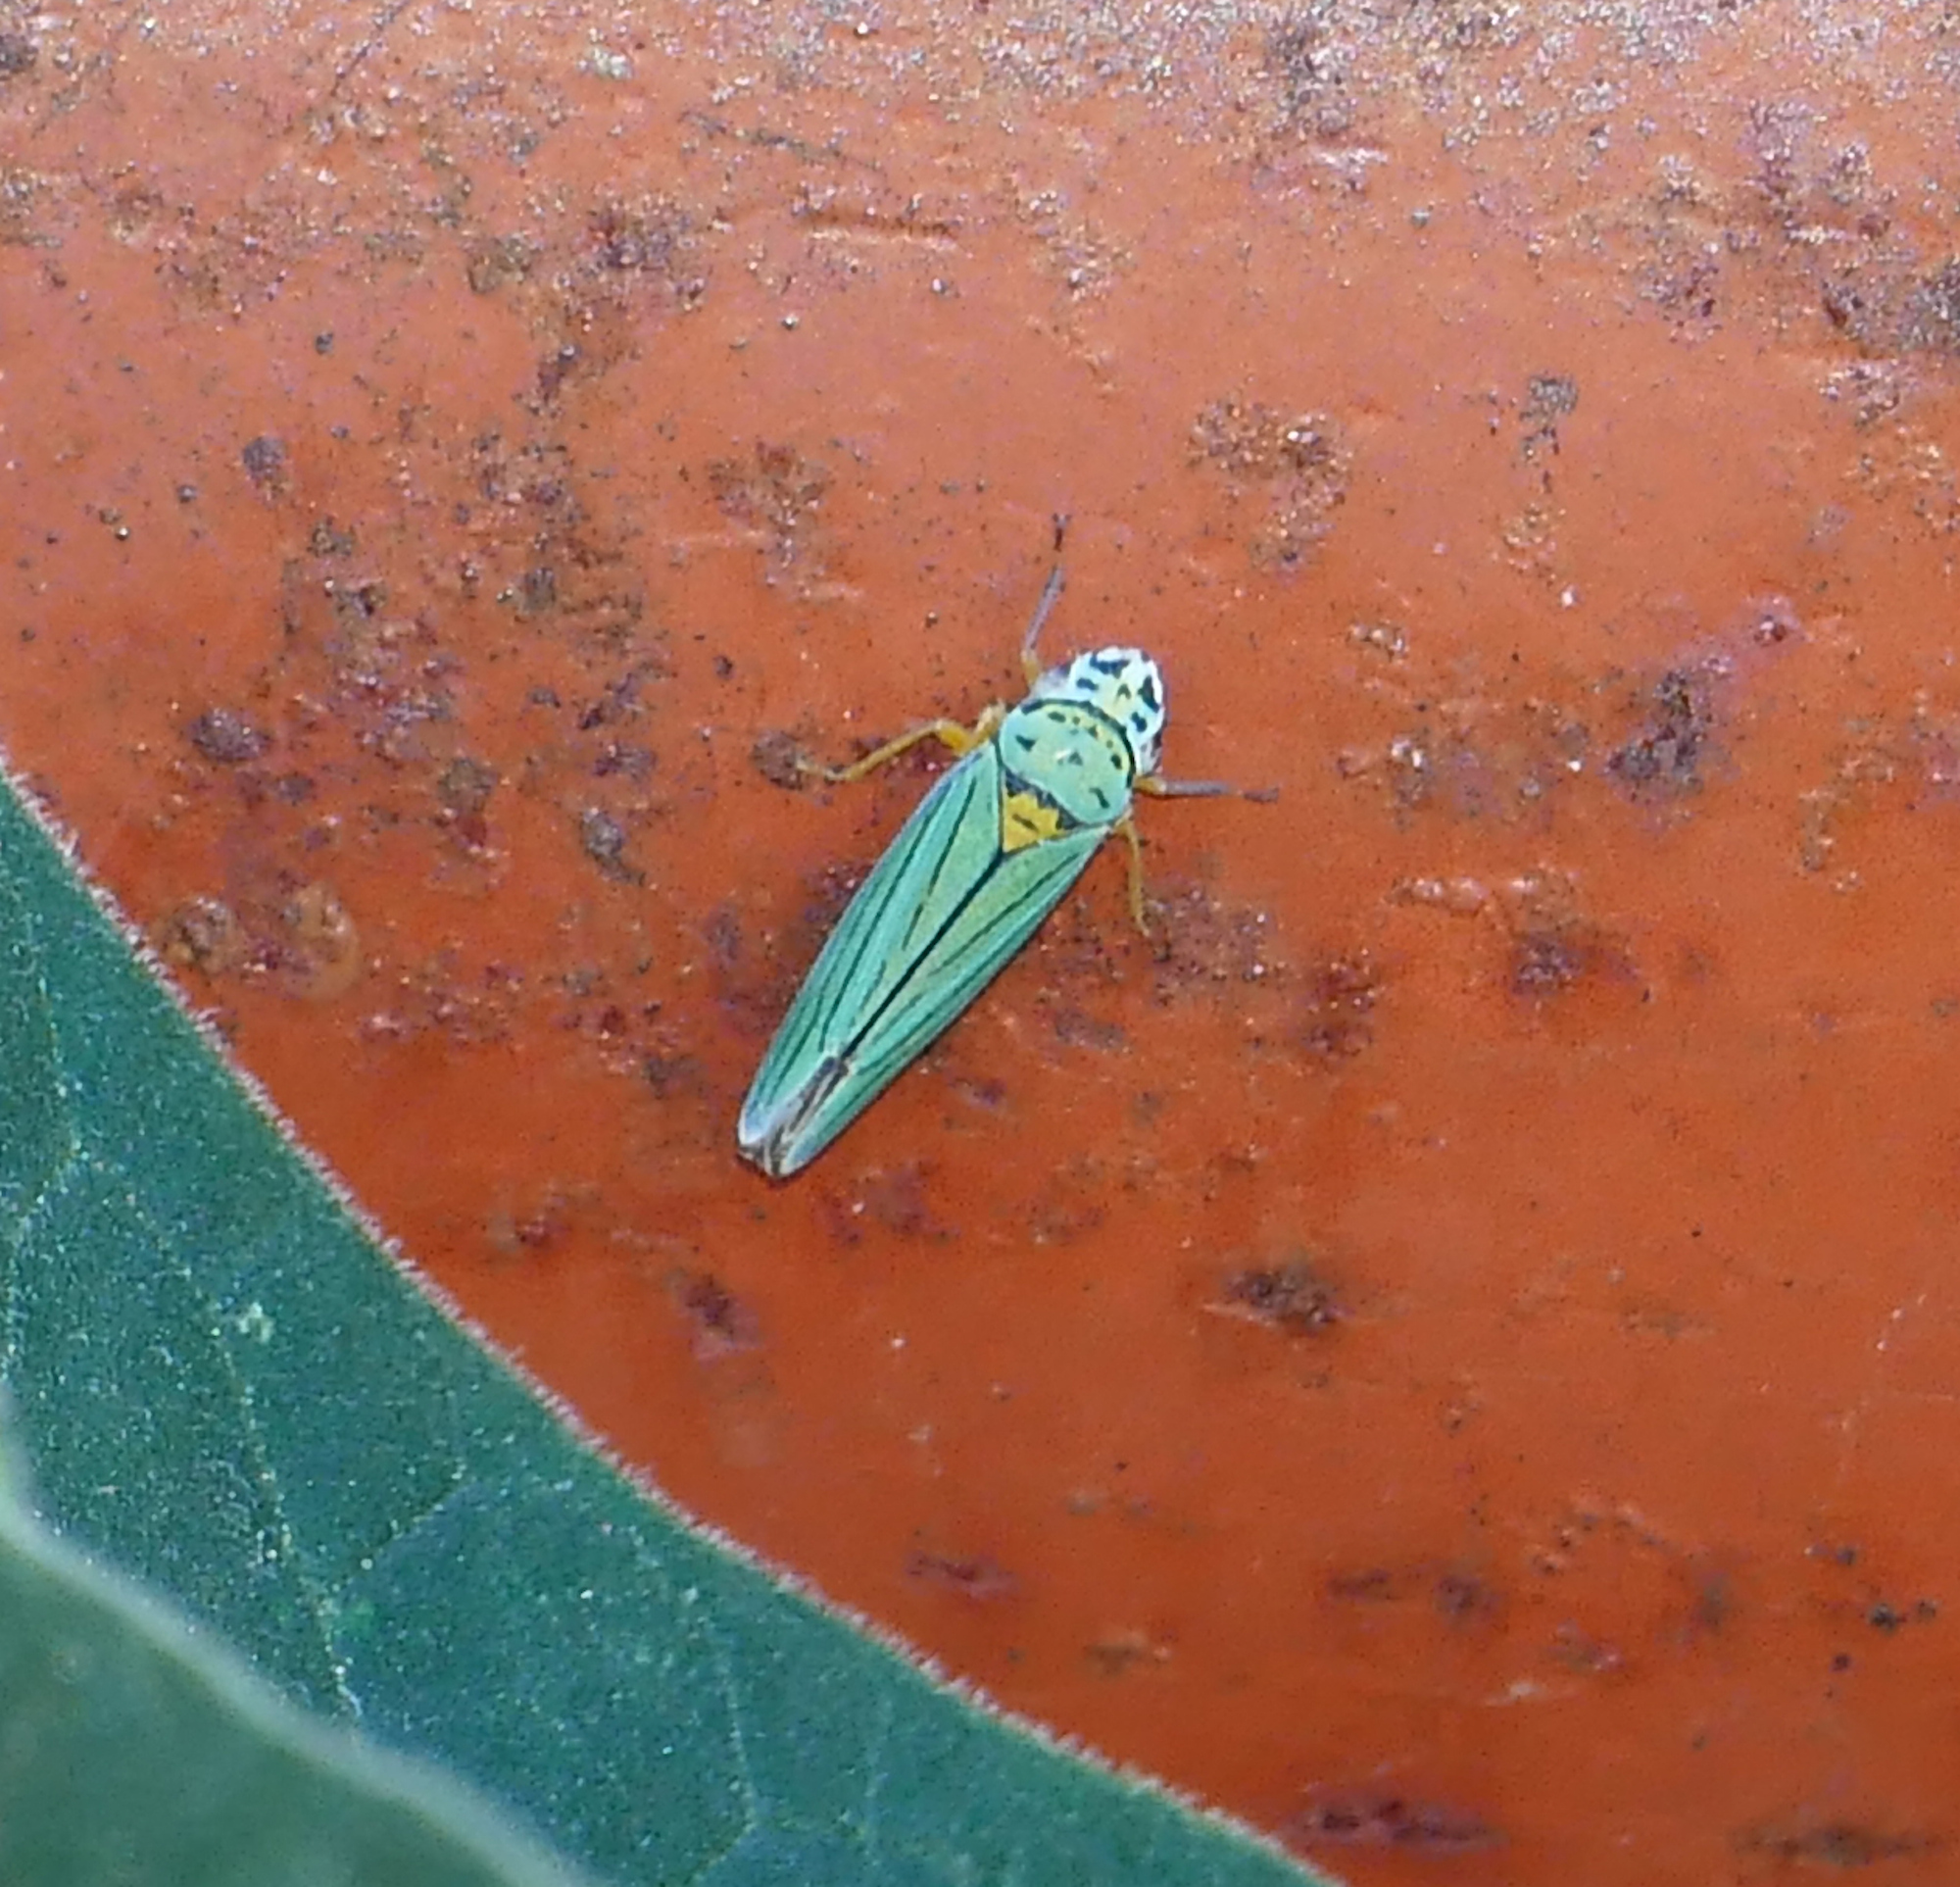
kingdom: Animalia
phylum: Arthropoda
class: Insecta
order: Hemiptera
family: Cicadellidae
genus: Graphocephala
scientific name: Graphocephala atropunctata
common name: Blue-green sharpshooter
